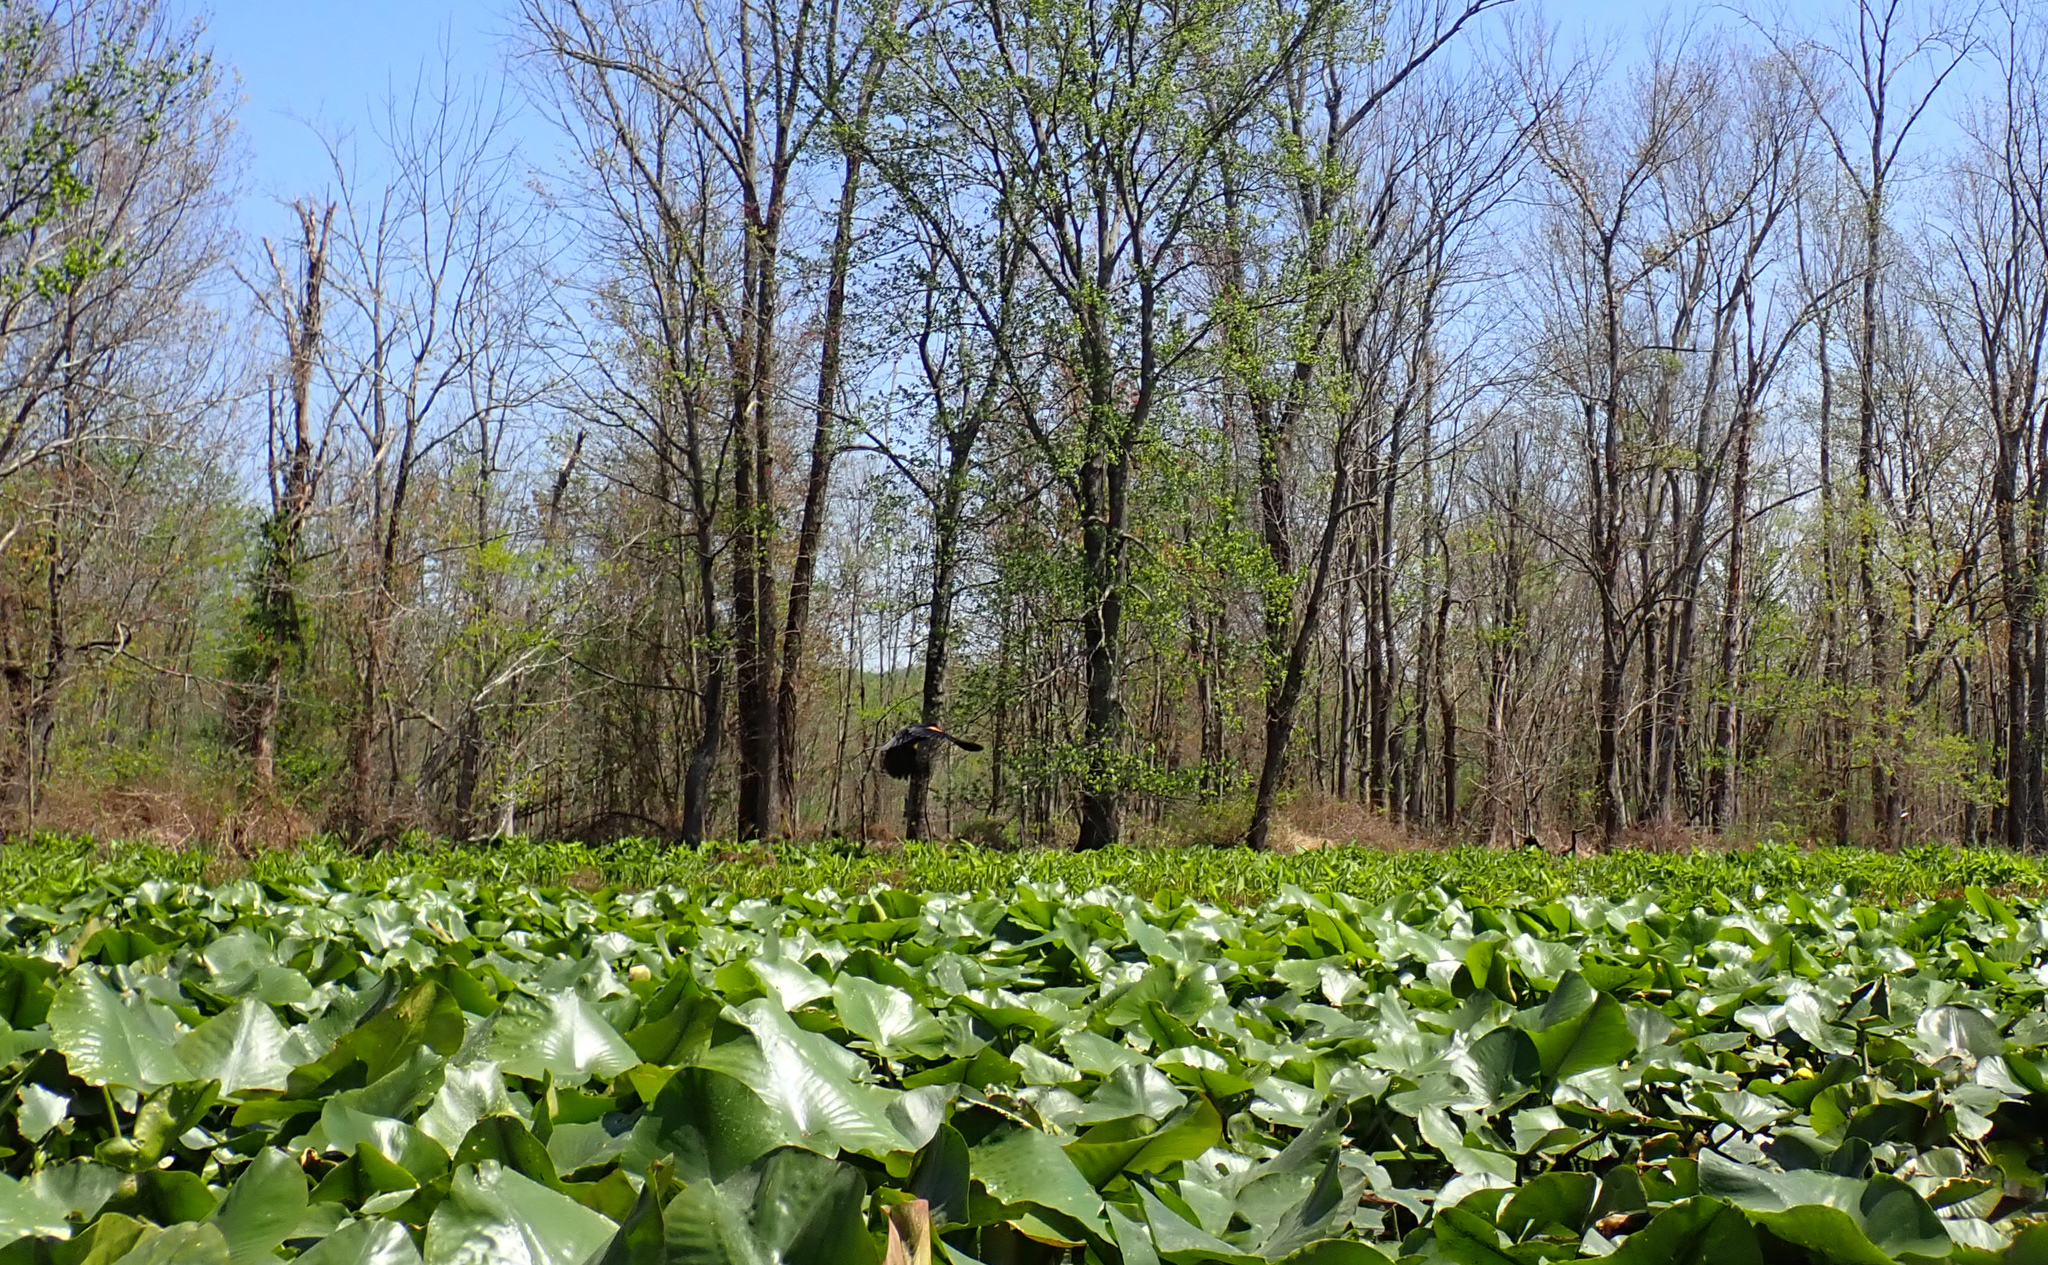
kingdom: Animalia
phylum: Chordata
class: Aves
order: Passeriformes
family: Icteridae
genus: Agelaius
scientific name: Agelaius phoeniceus
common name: Red-winged blackbird
